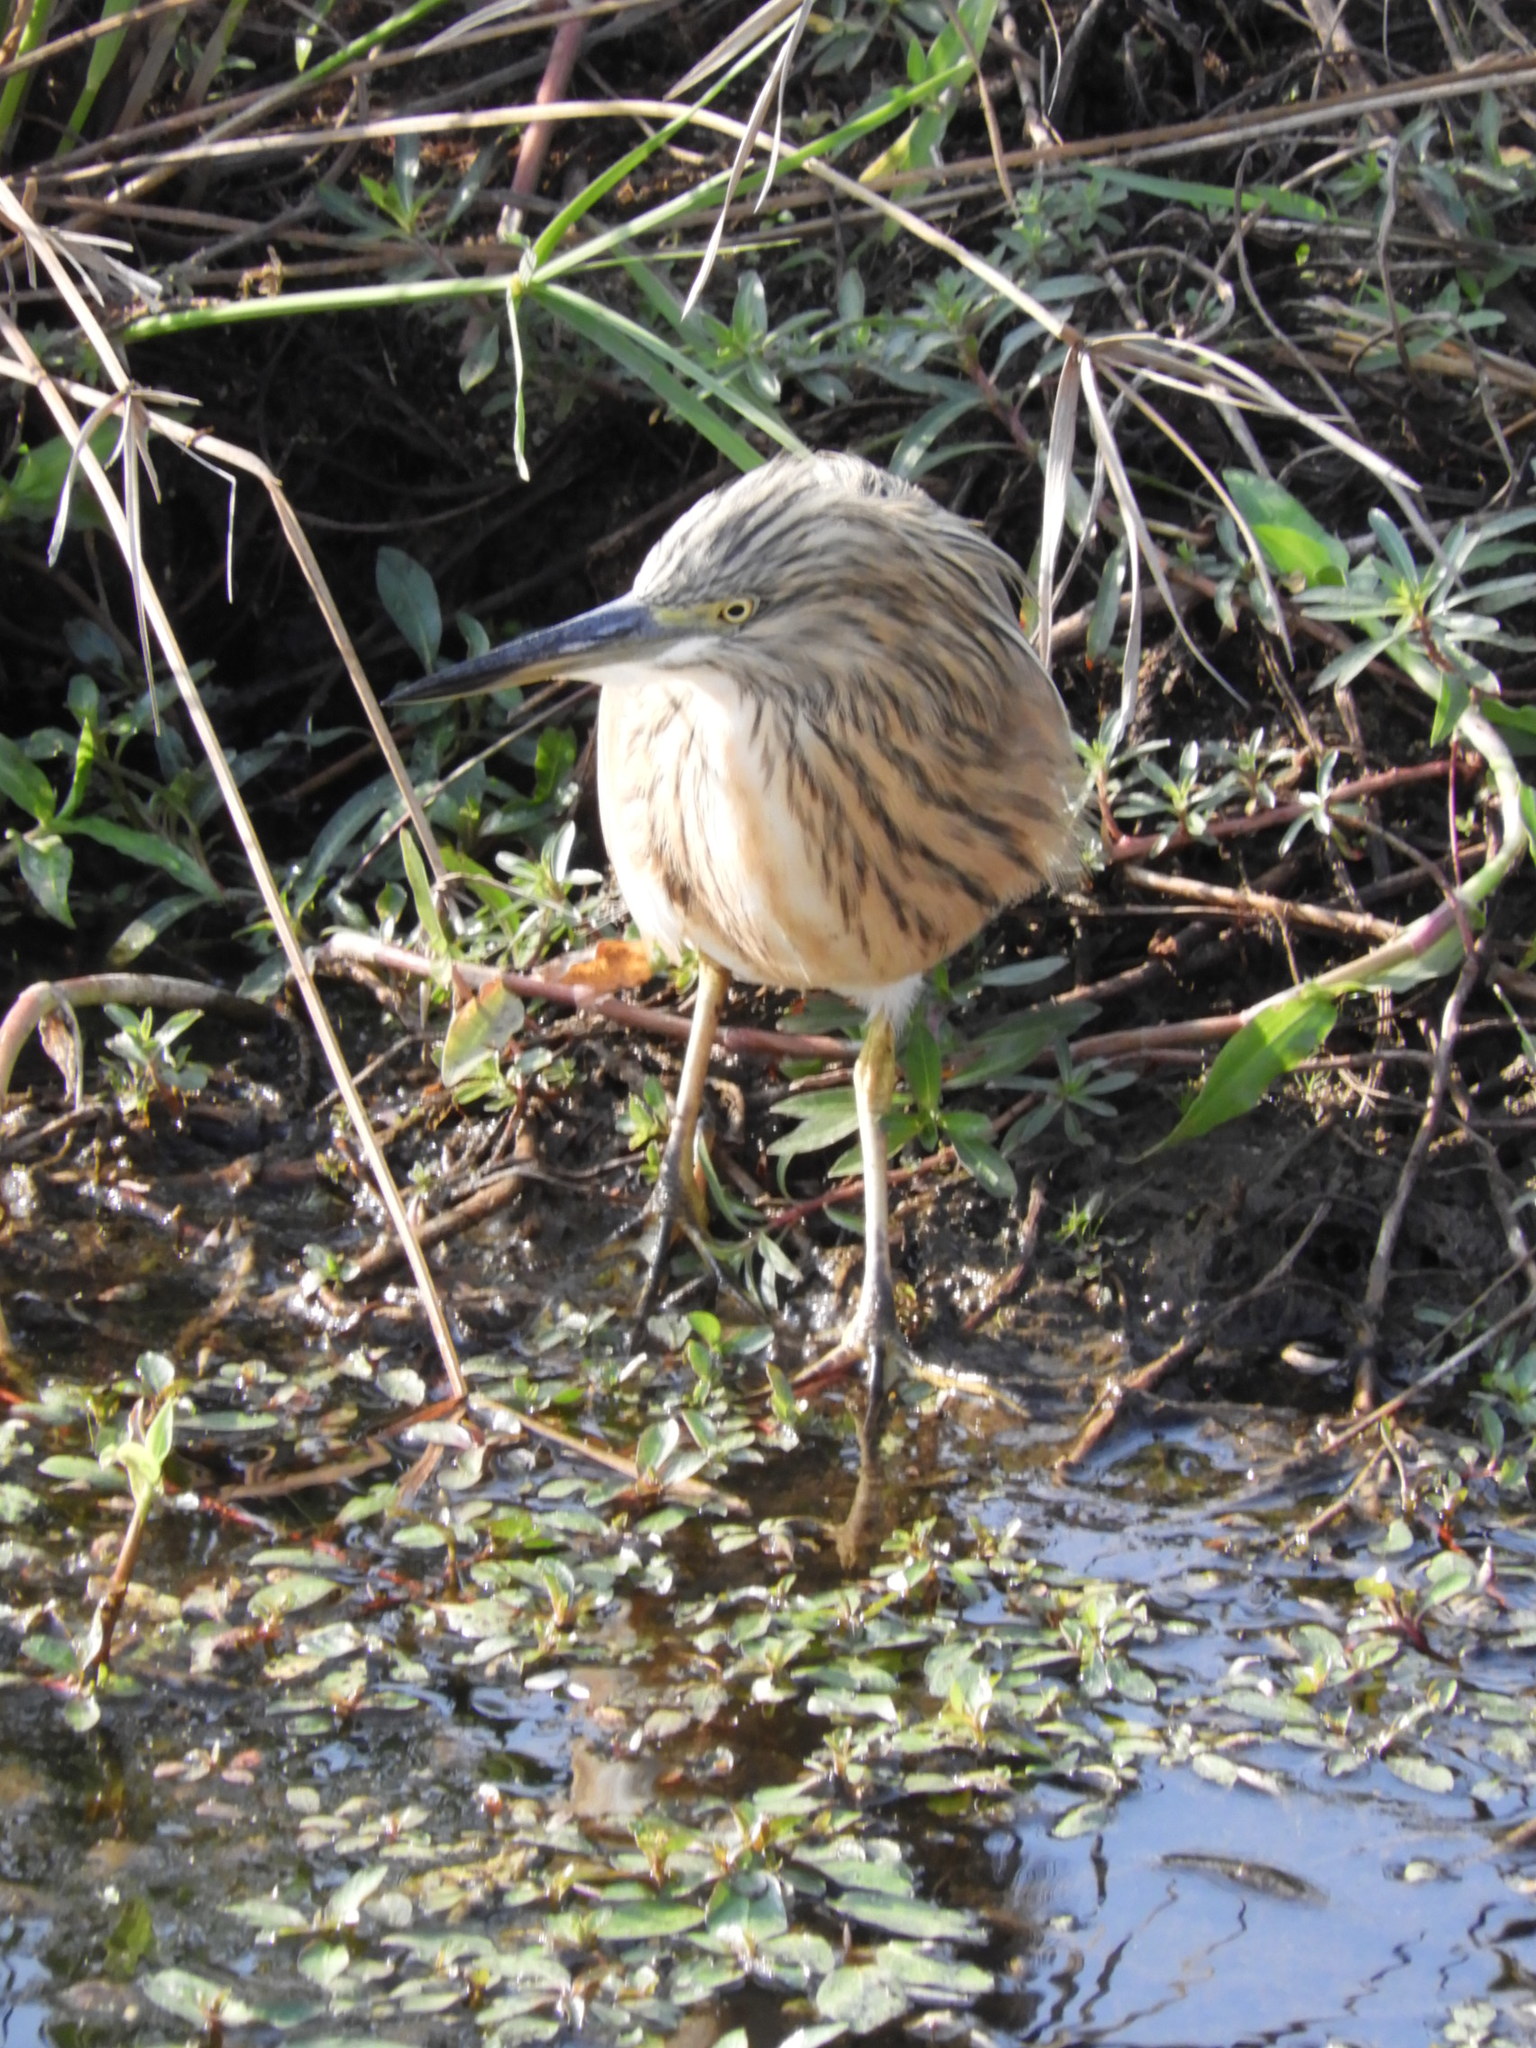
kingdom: Animalia
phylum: Chordata
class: Aves
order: Pelecaniformes
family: Ardeidae
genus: Ardeola
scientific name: Ardeola ralloides
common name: Squacco heron
